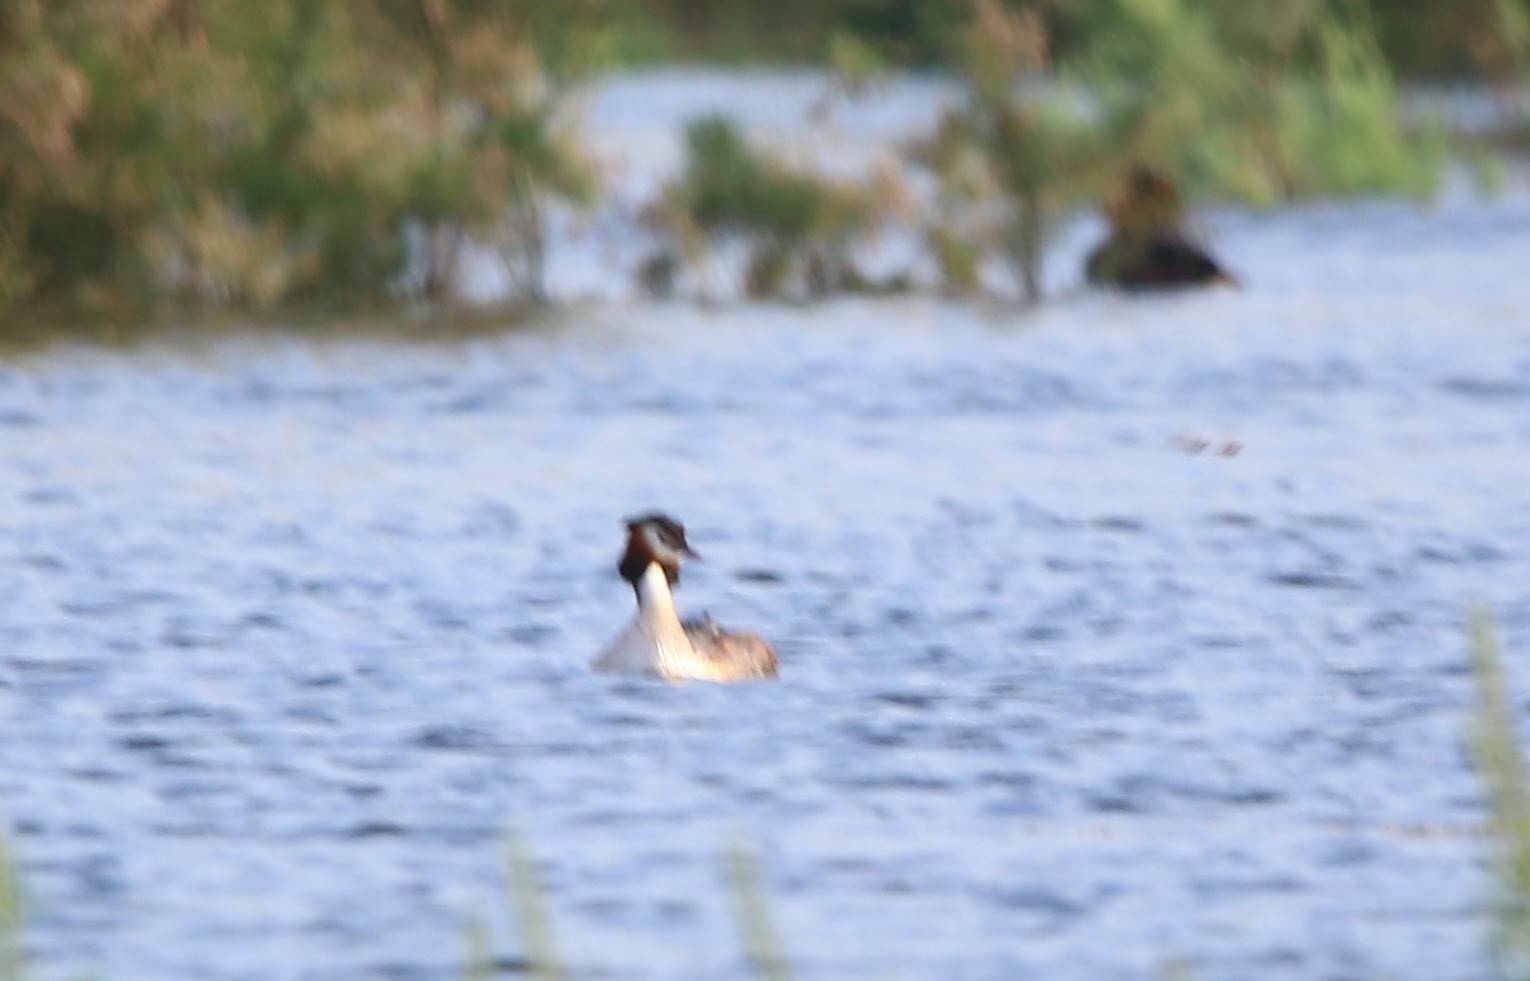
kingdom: Animalia
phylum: Chordata
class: Aves
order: Podicipediformes
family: Podicipedidae
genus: Podiceps
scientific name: Podiceps cristatus
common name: Great crested grebe
